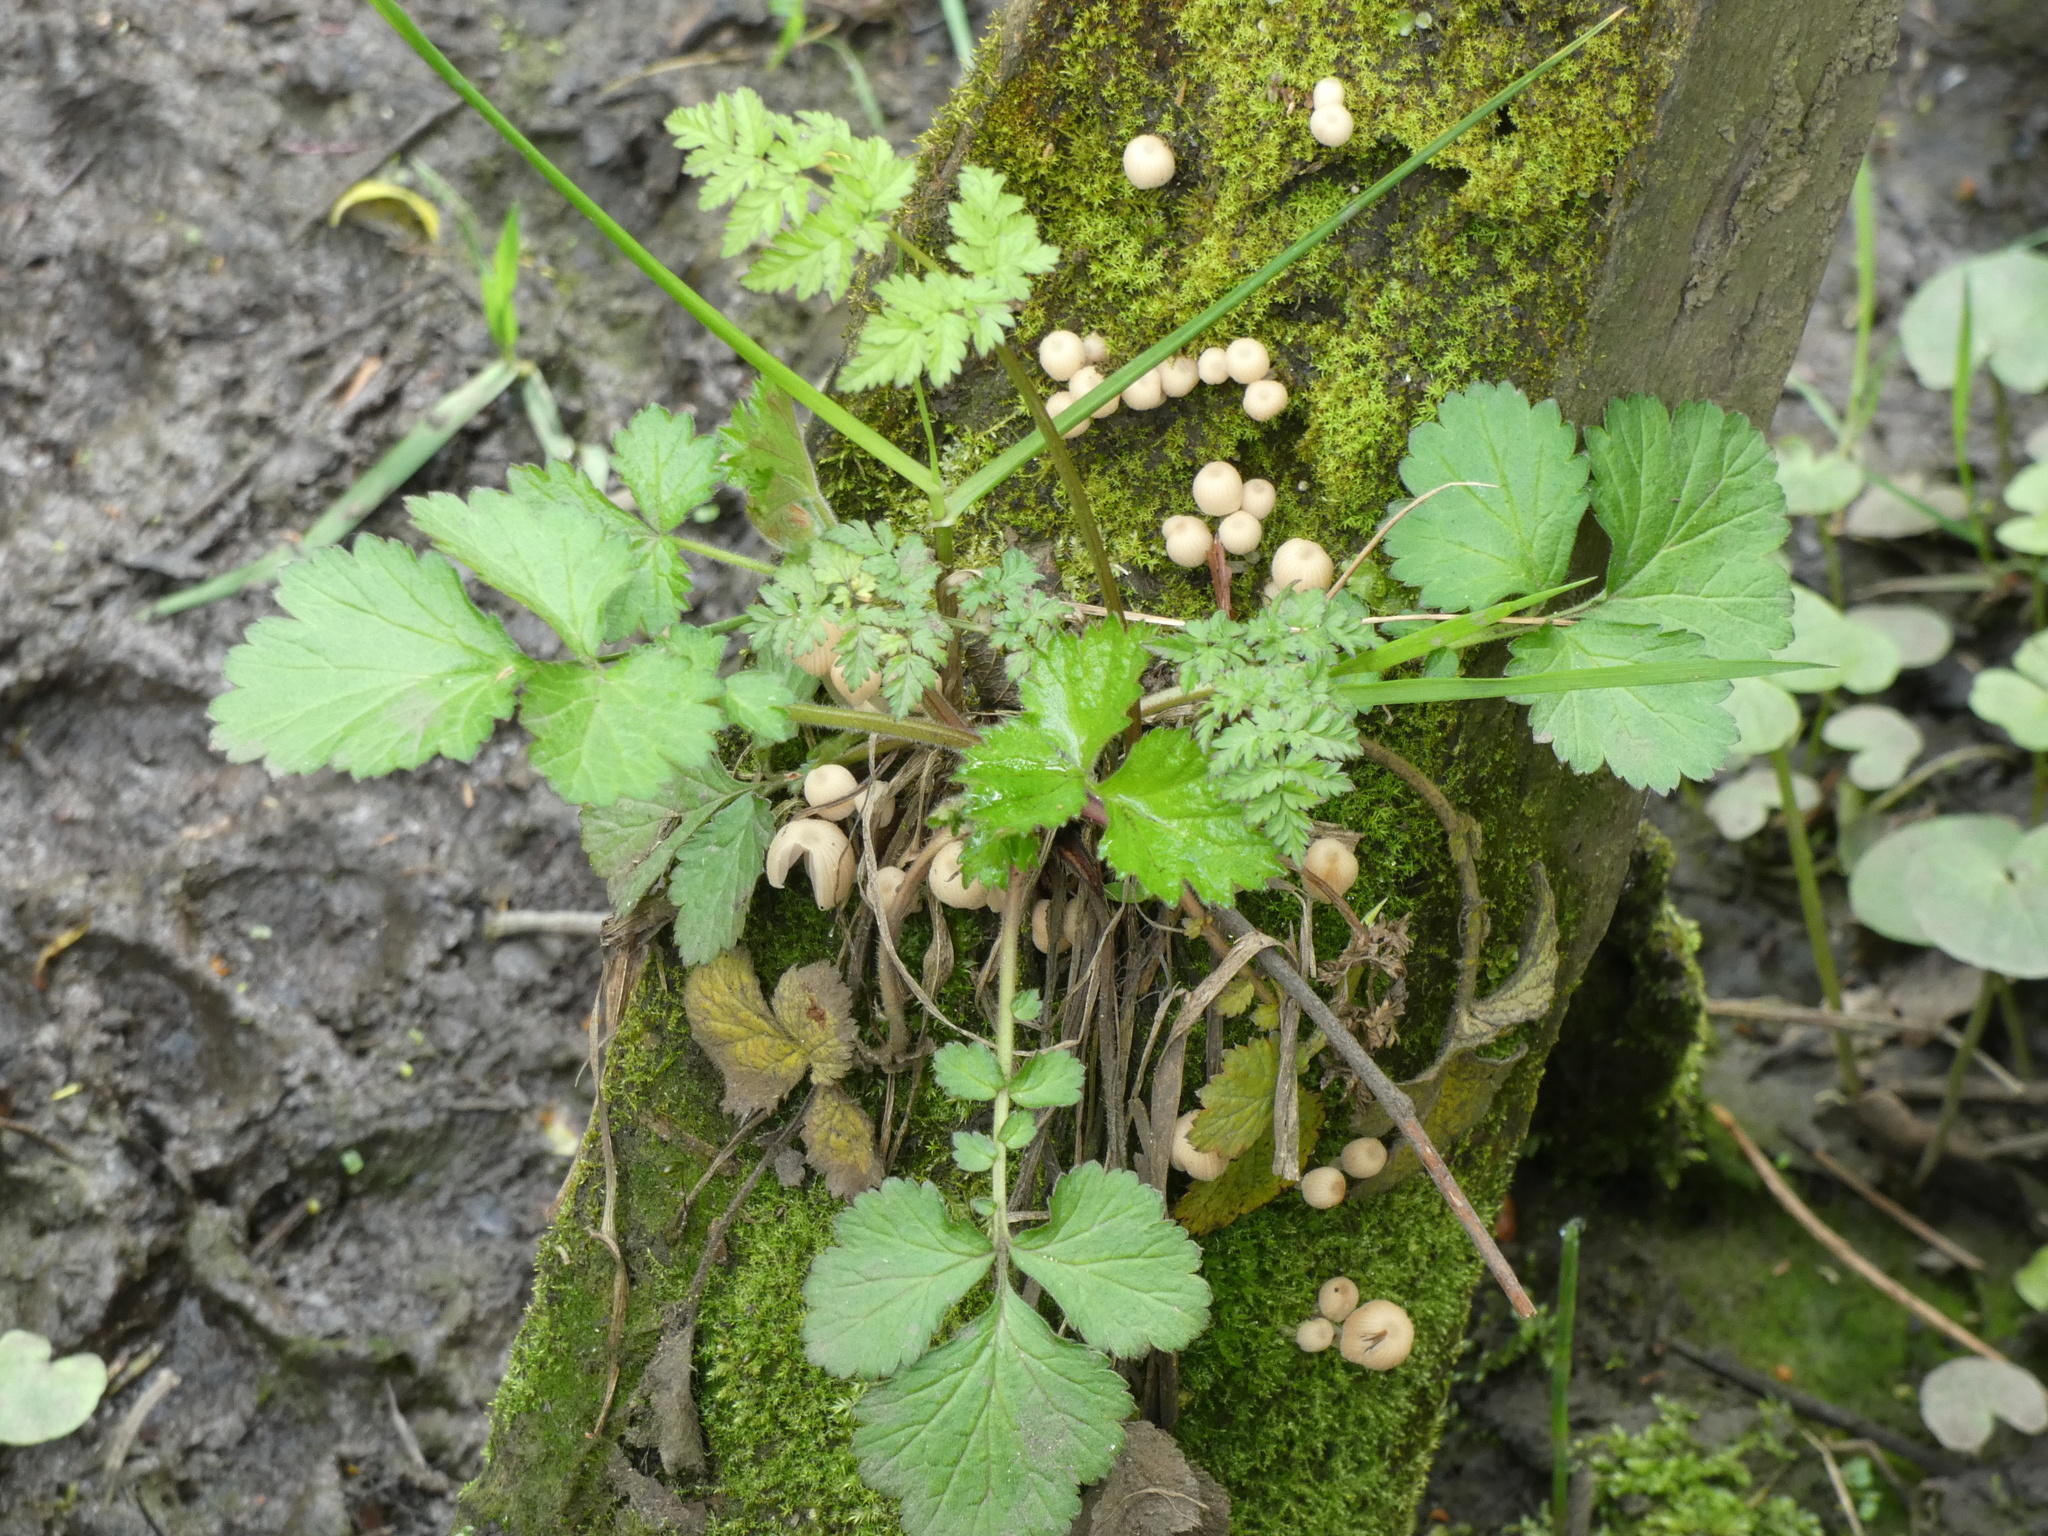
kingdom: Fungi
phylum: Basidiomycota
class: Agaricomycetes
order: Agaricales
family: Psathyrellaceae
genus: Coprinellus
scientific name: Coprinellus disseminatus
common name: Fairies' bonnets
